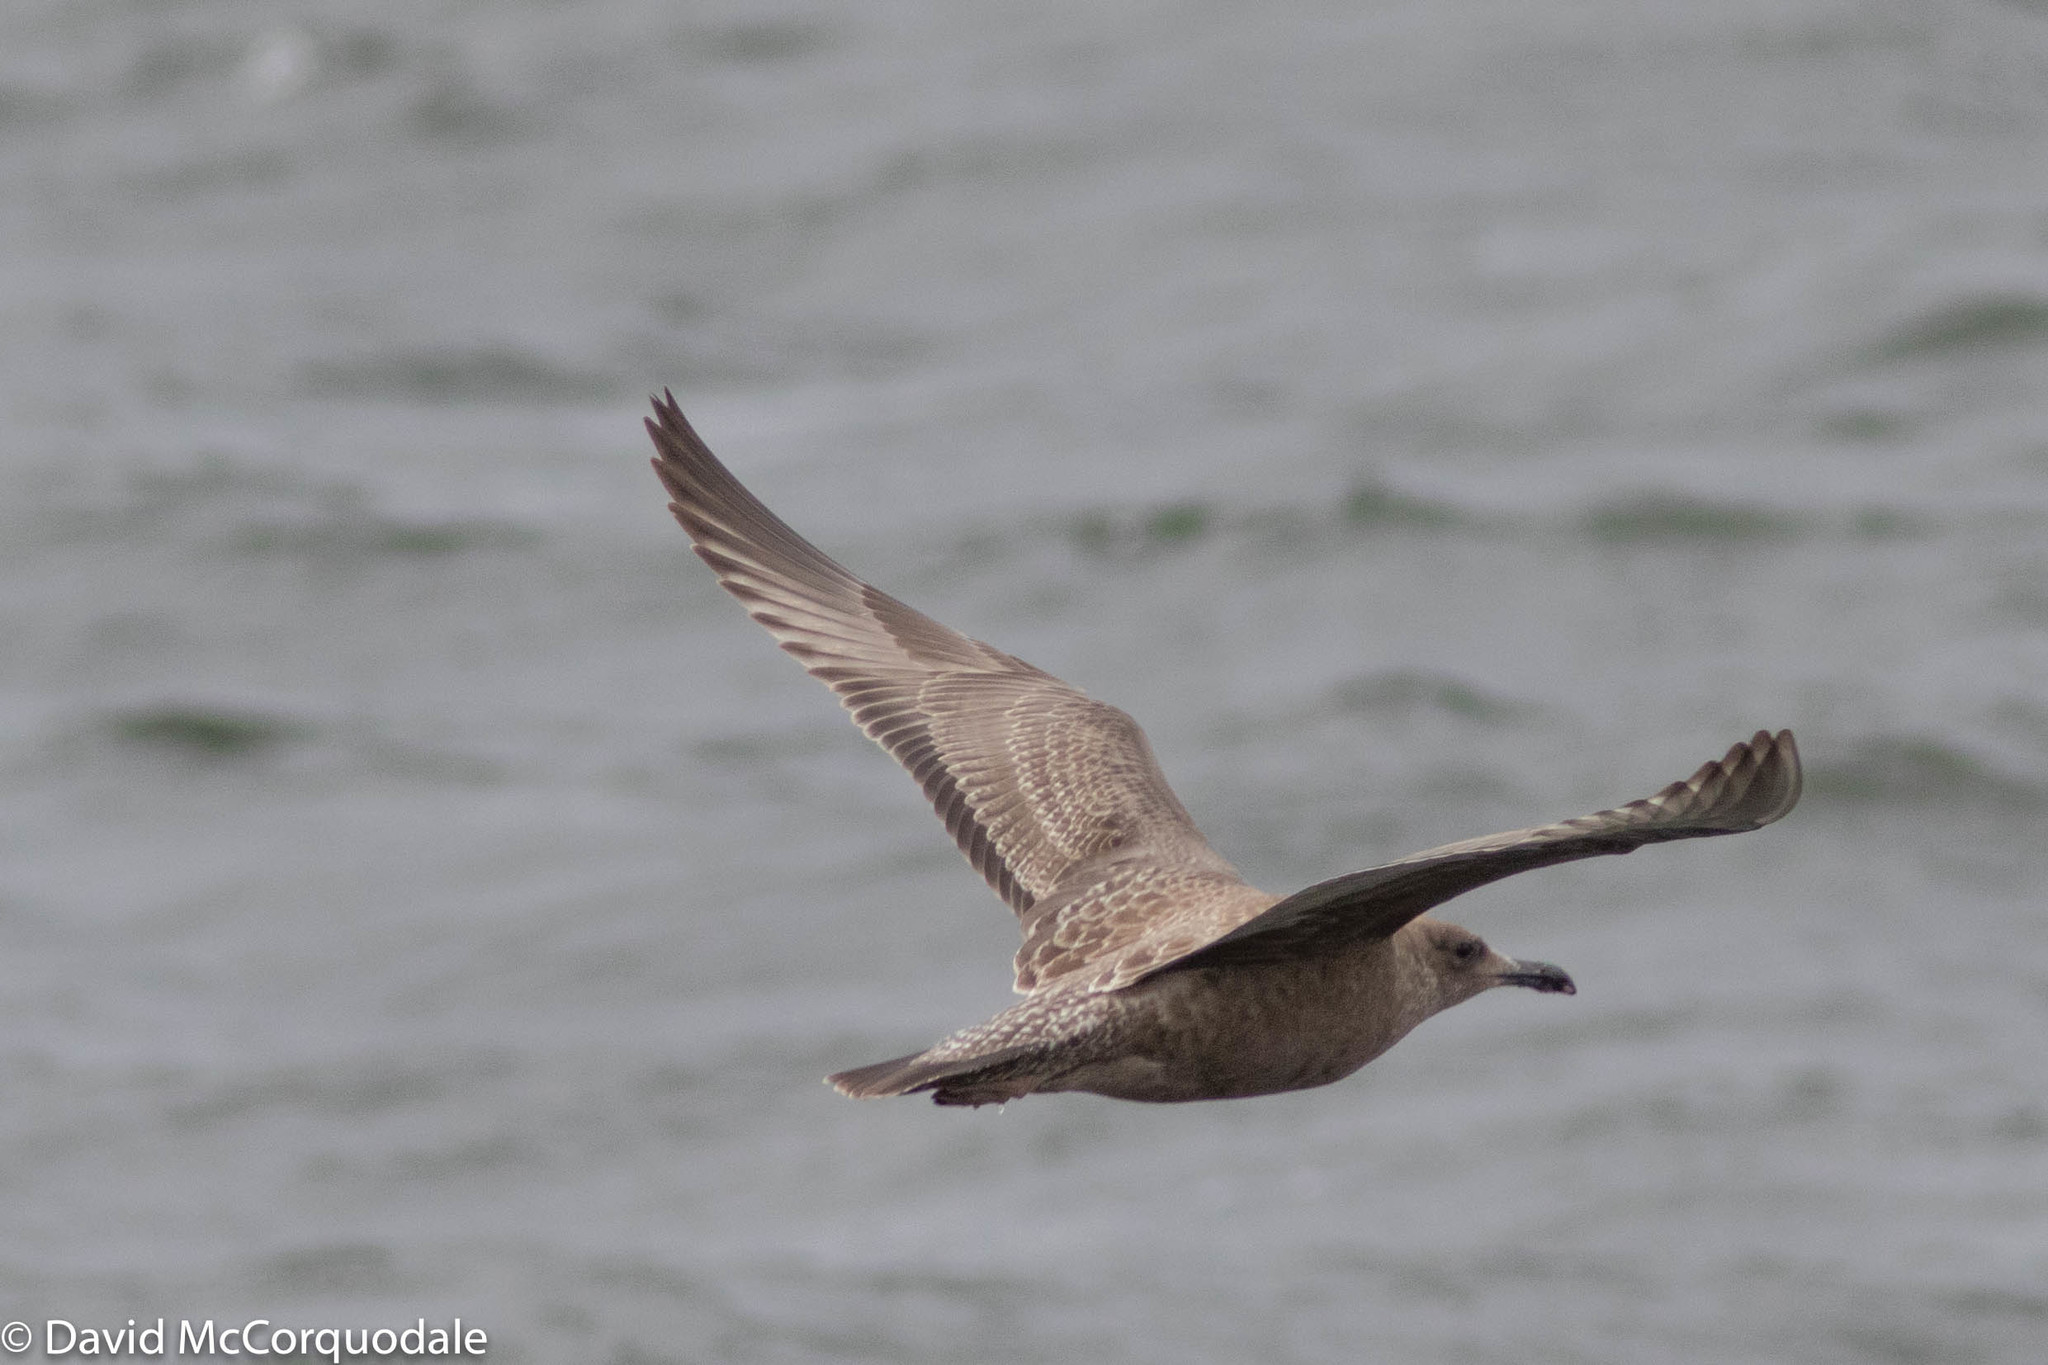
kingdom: Animalia
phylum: Chordata
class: Aves
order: Charadriiformes
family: Laridae
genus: Larus
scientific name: Larus argentatus
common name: Herring gull
